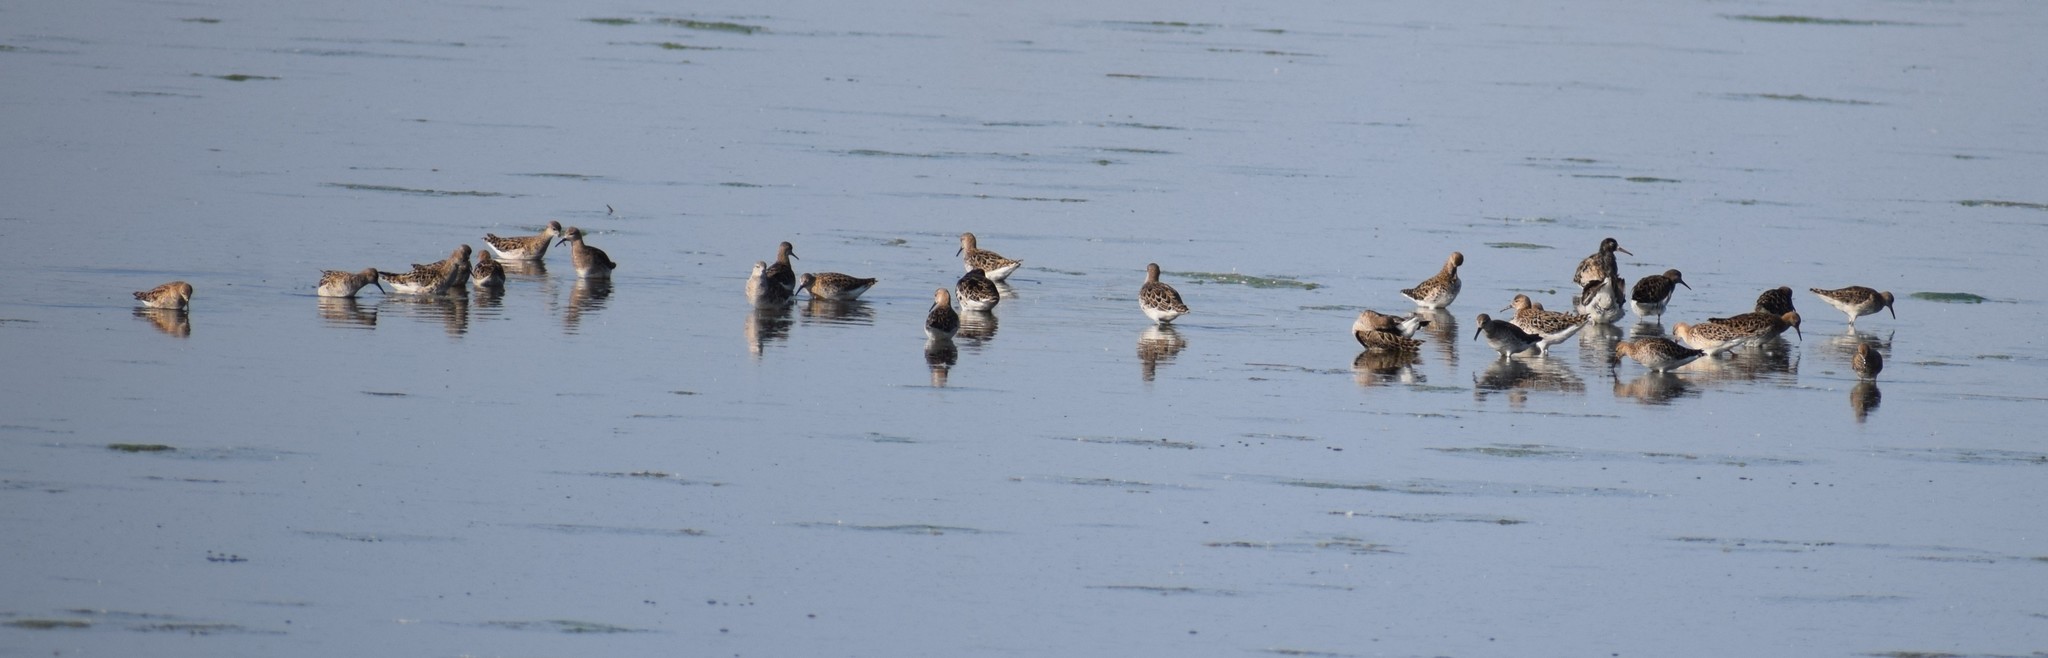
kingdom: Animalia
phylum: Chordata
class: Aves
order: Charadriiformes
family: Scolopacidae
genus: Calidris
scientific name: Calidris pugnax
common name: Ruff
